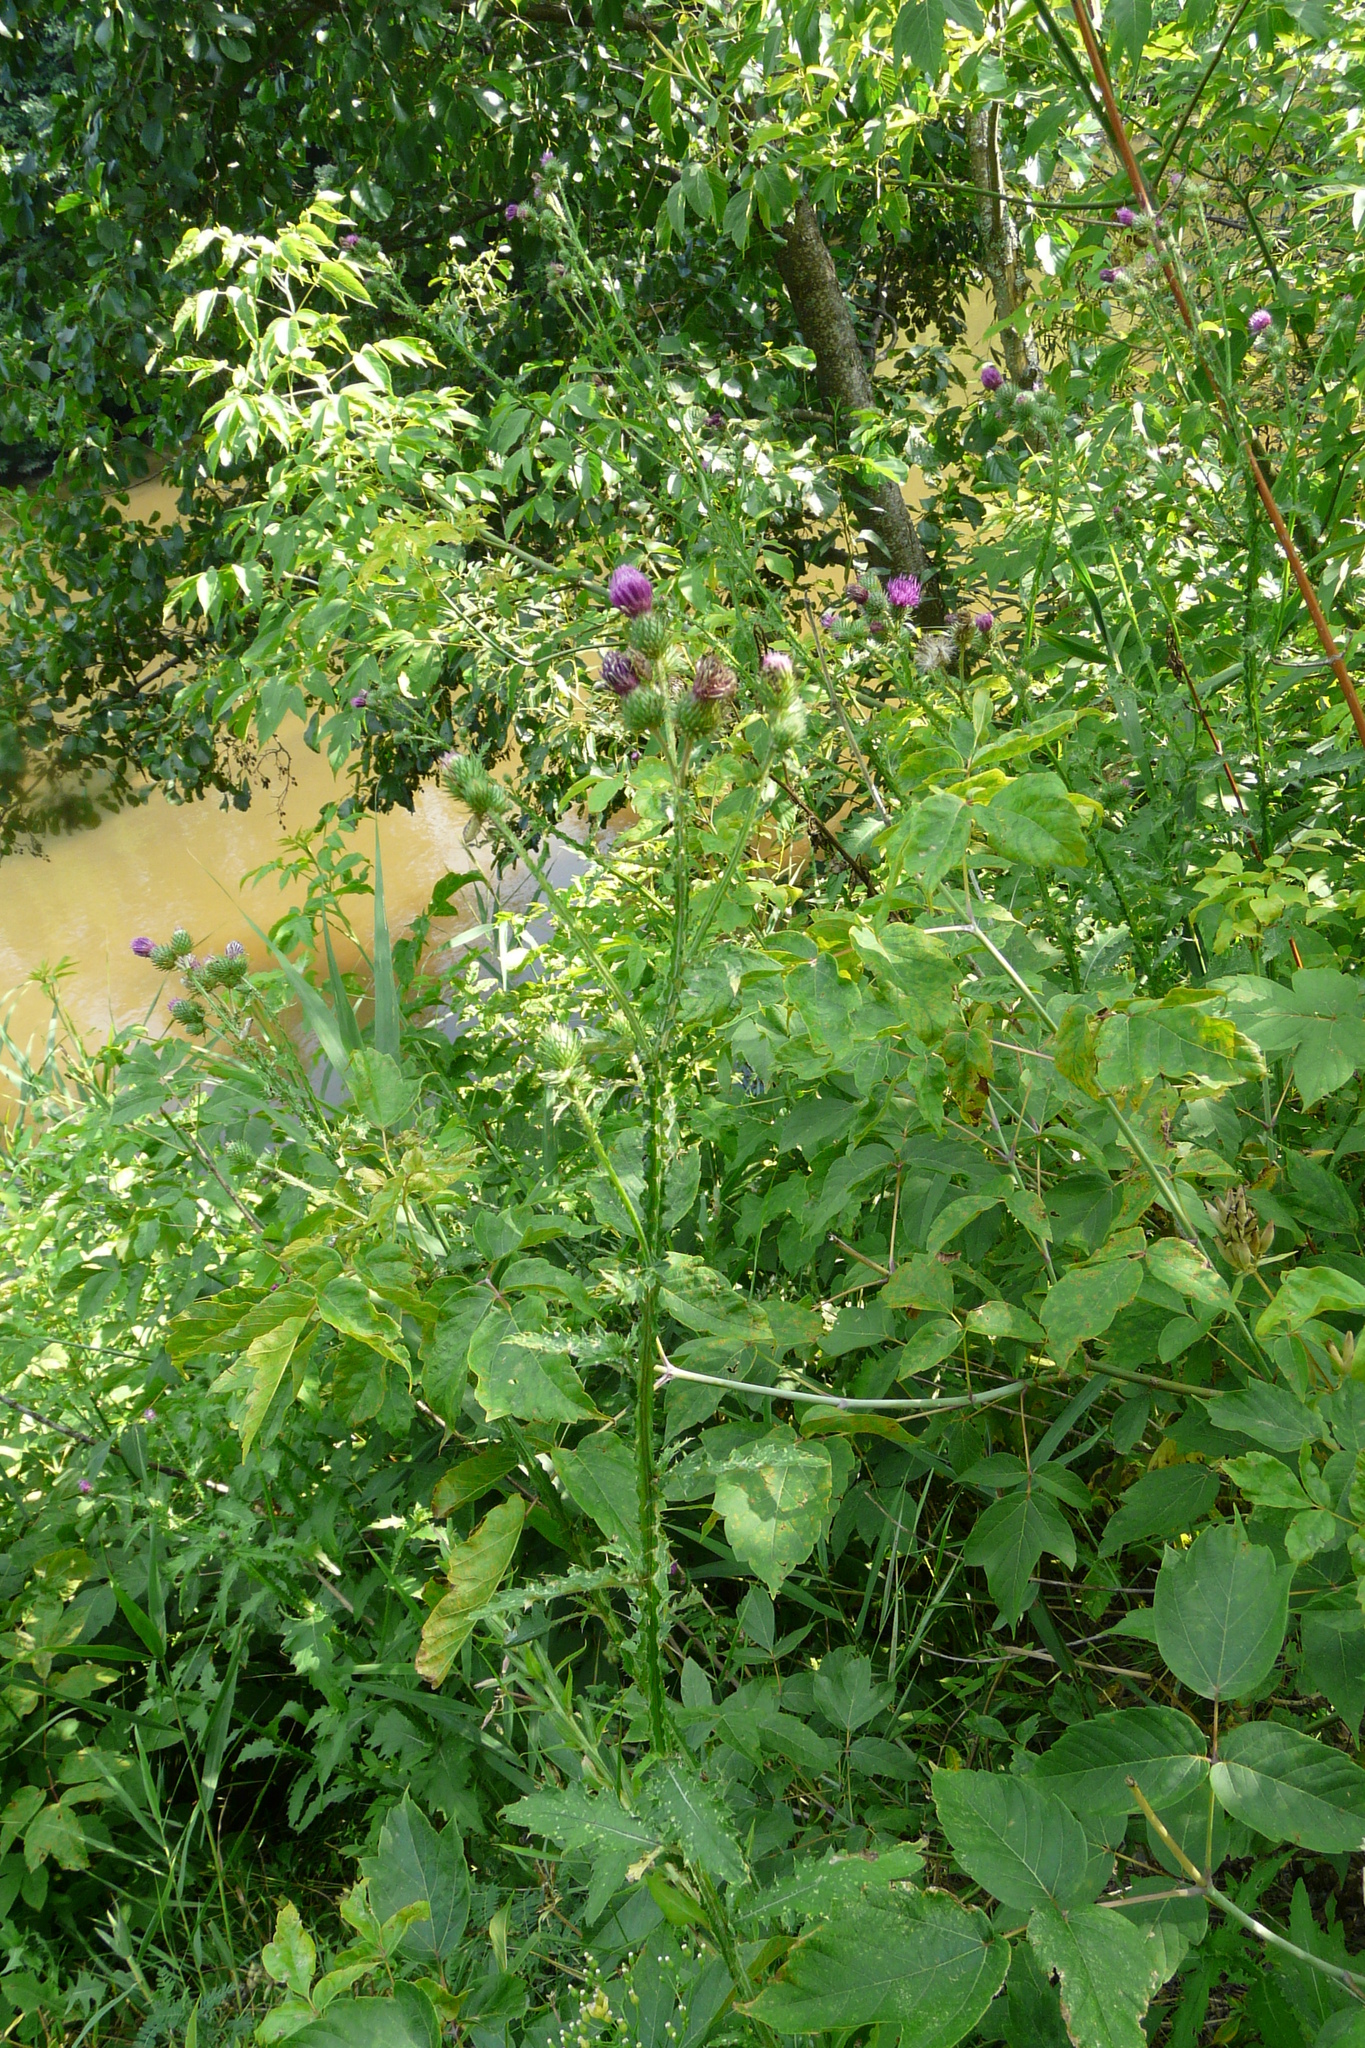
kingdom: Plantae
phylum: Tracheophyta
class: Magnoliopsida
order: Asterales
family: Asteraceae
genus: Carduus
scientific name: Carduus crispus
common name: Welted thistle
